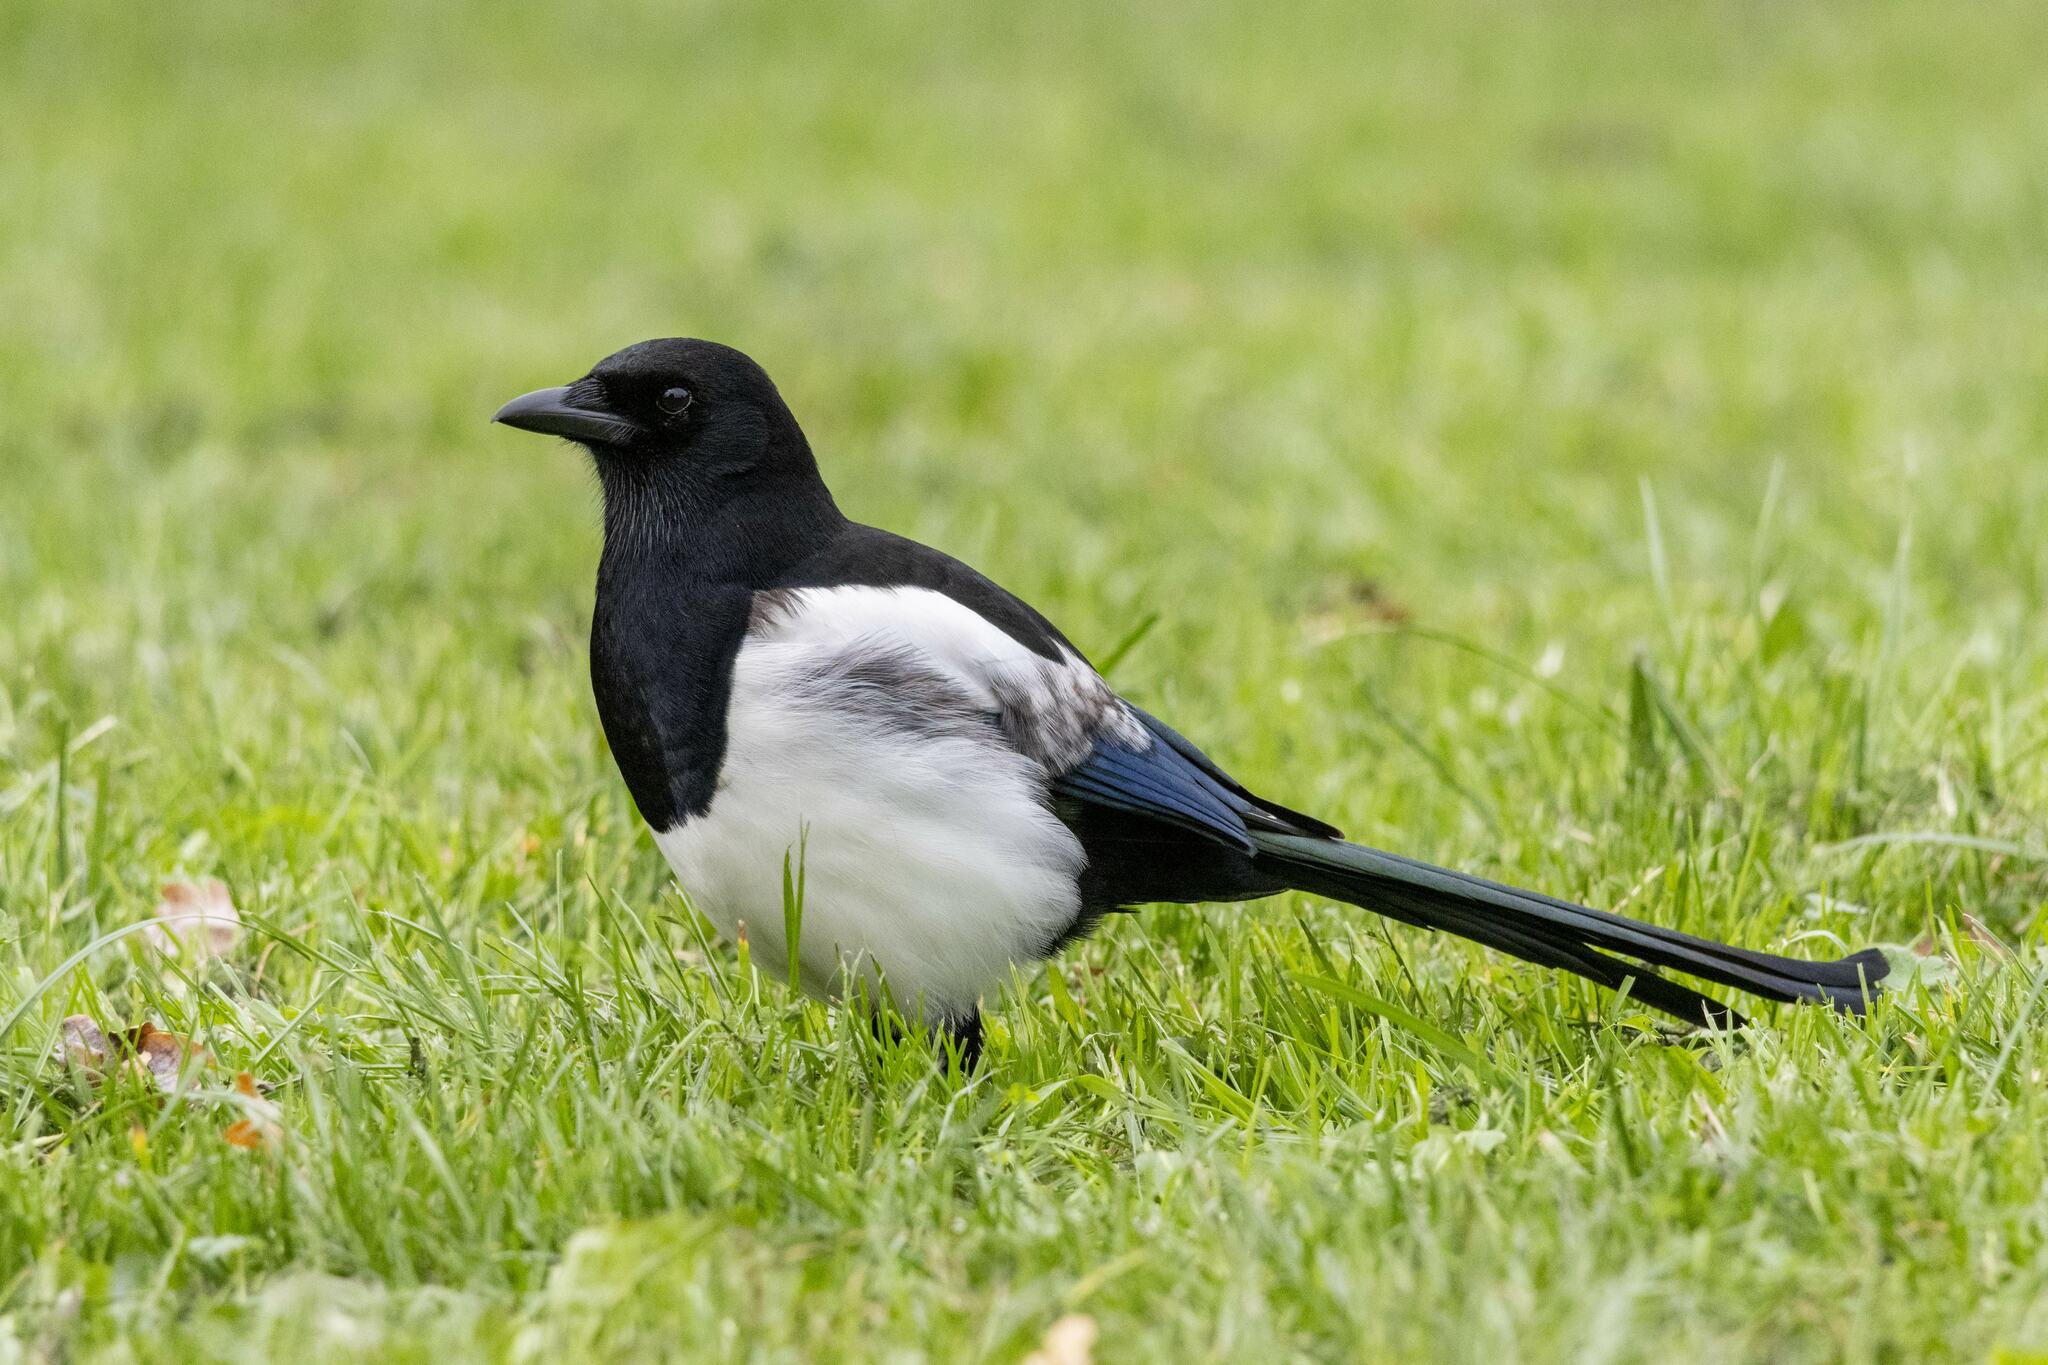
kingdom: Animalia
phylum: Chordata
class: Aves
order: Passeriformes
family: Corvidae
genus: Pica
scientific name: Pica pica
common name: Eurasian magpie
